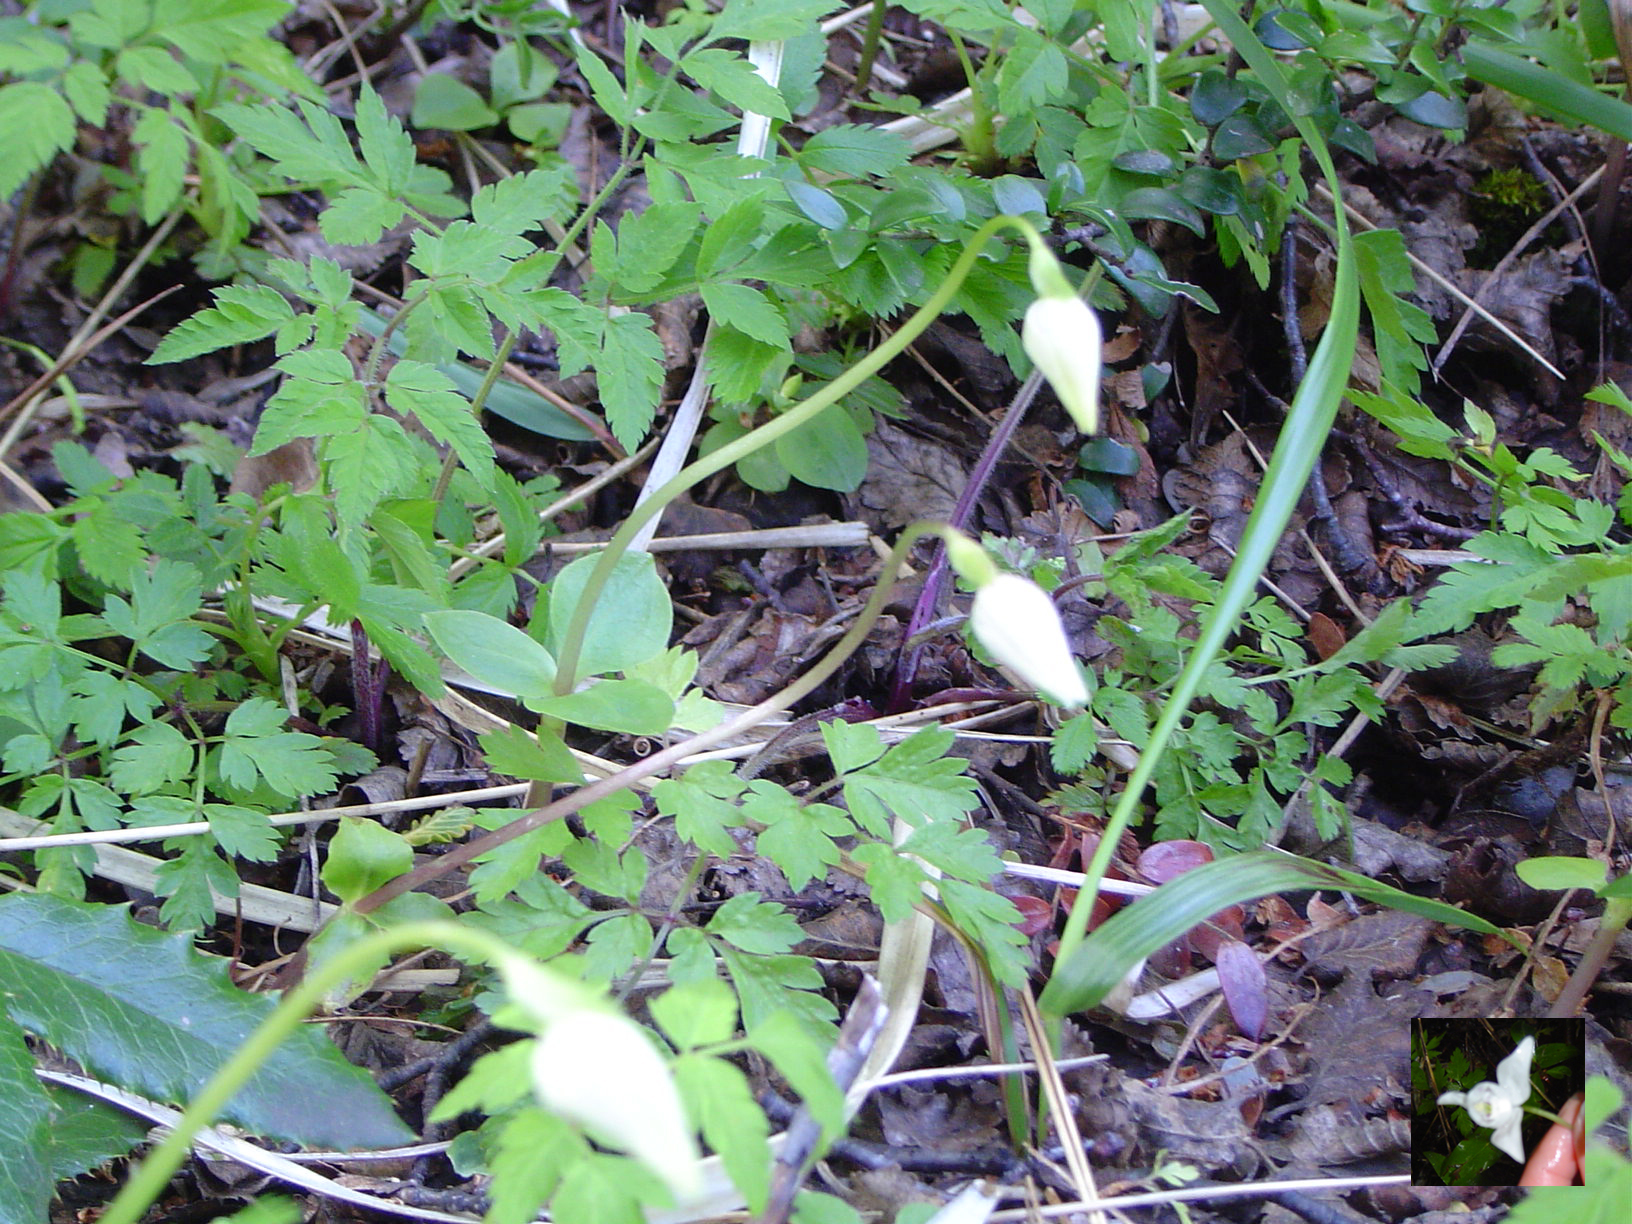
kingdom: Plantae
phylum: Tracheophyta
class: Liliopsida
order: Asparagales
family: Orchidaceae
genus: Codonorchis
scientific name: Codonorchis lessonii
